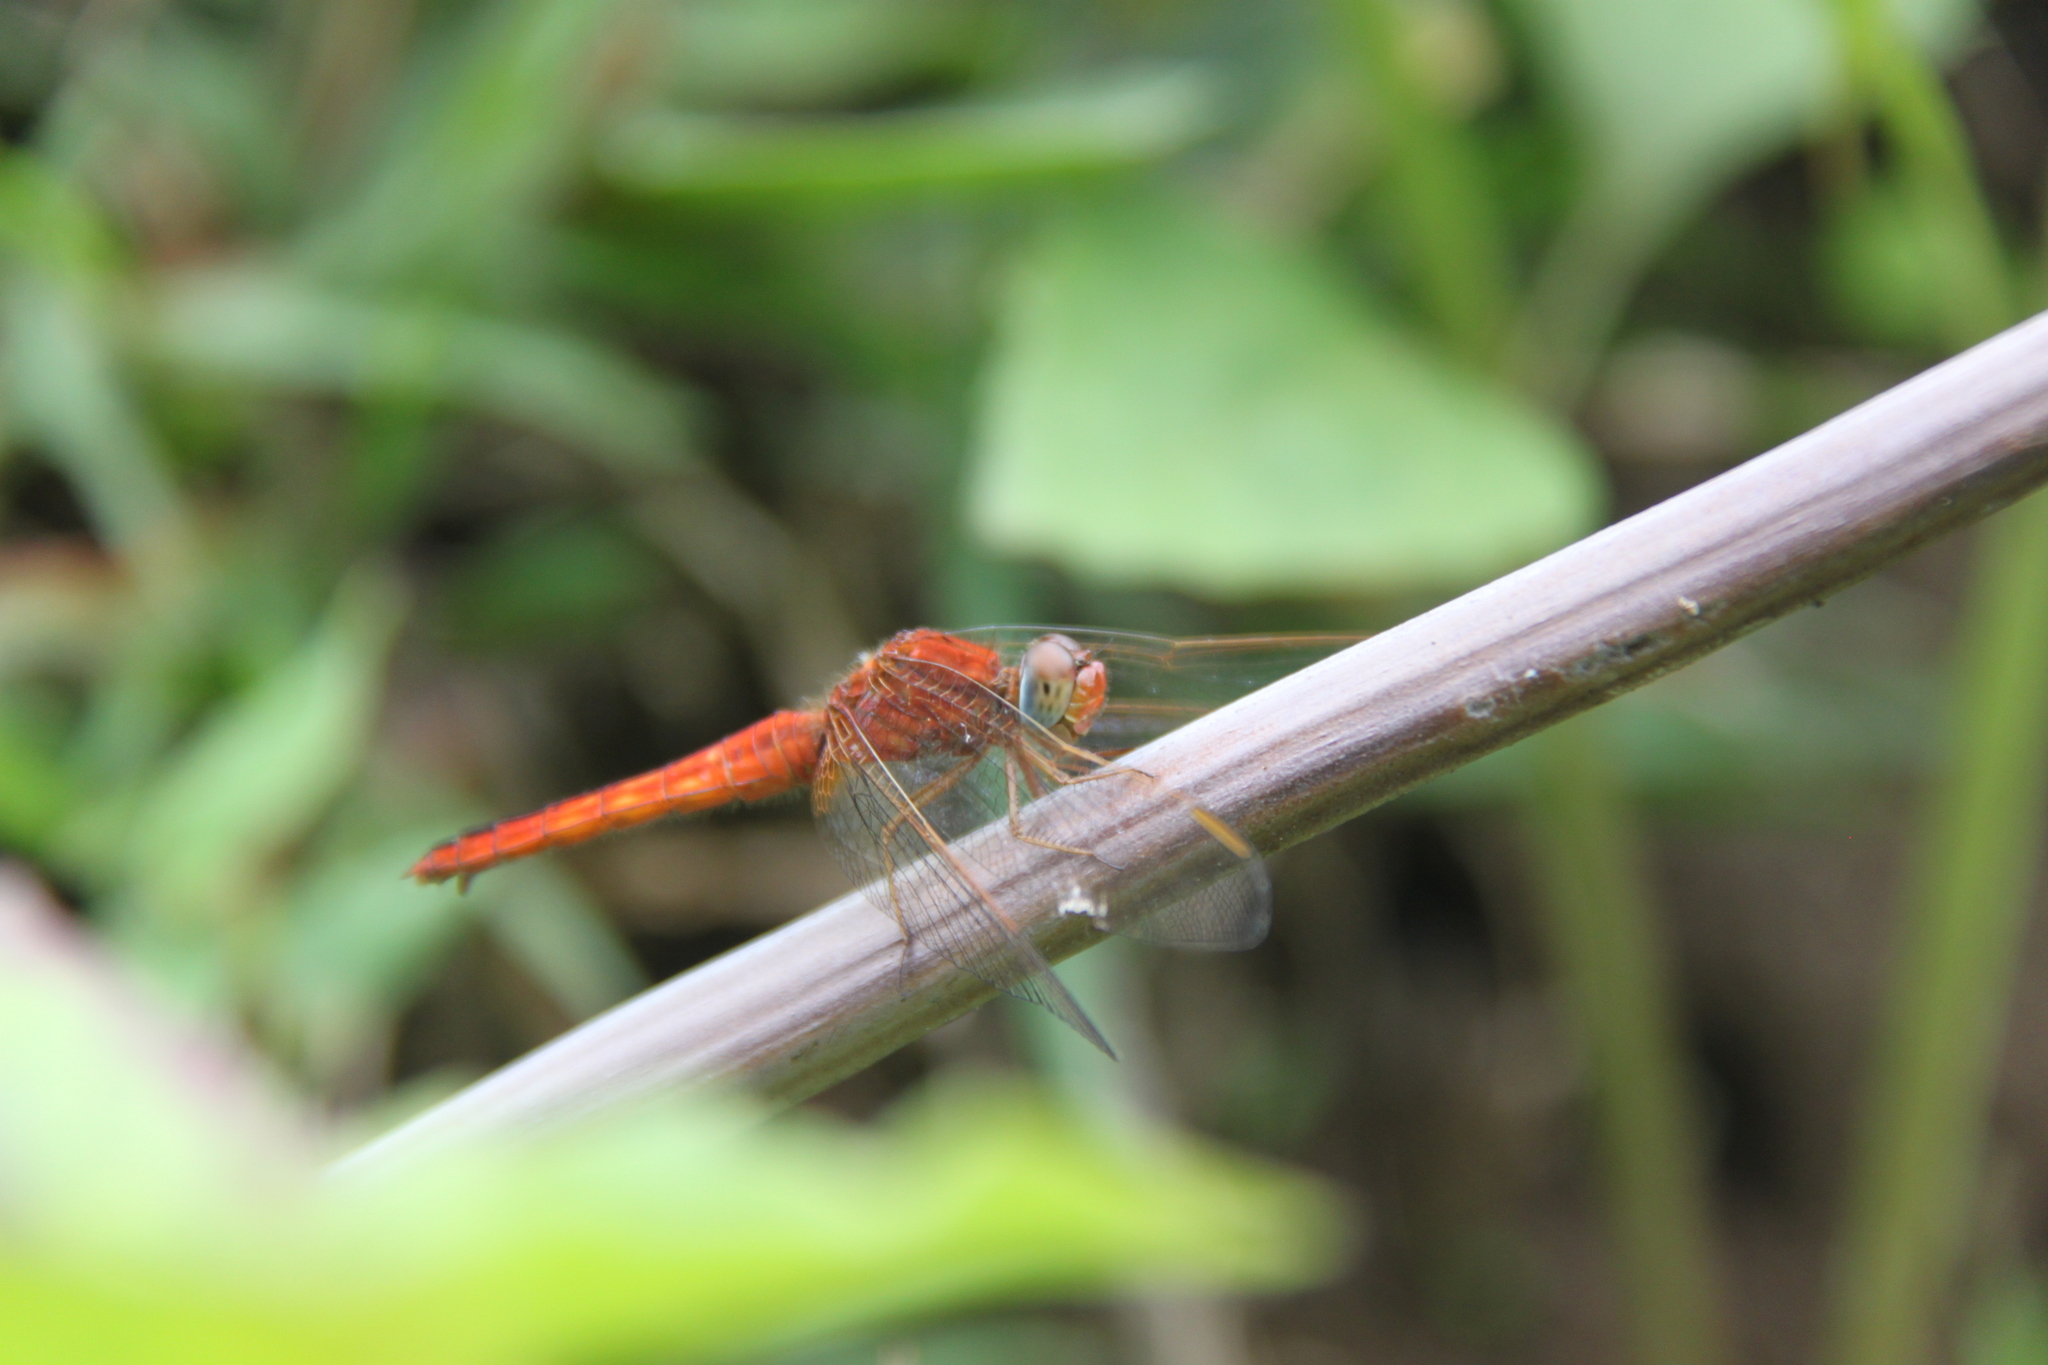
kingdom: Animalia
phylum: Arthropoda
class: Insecta
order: Odonata
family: Libellulidae
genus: Crocothemis
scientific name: Crocothemis servilia
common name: Scarlet skimmer
